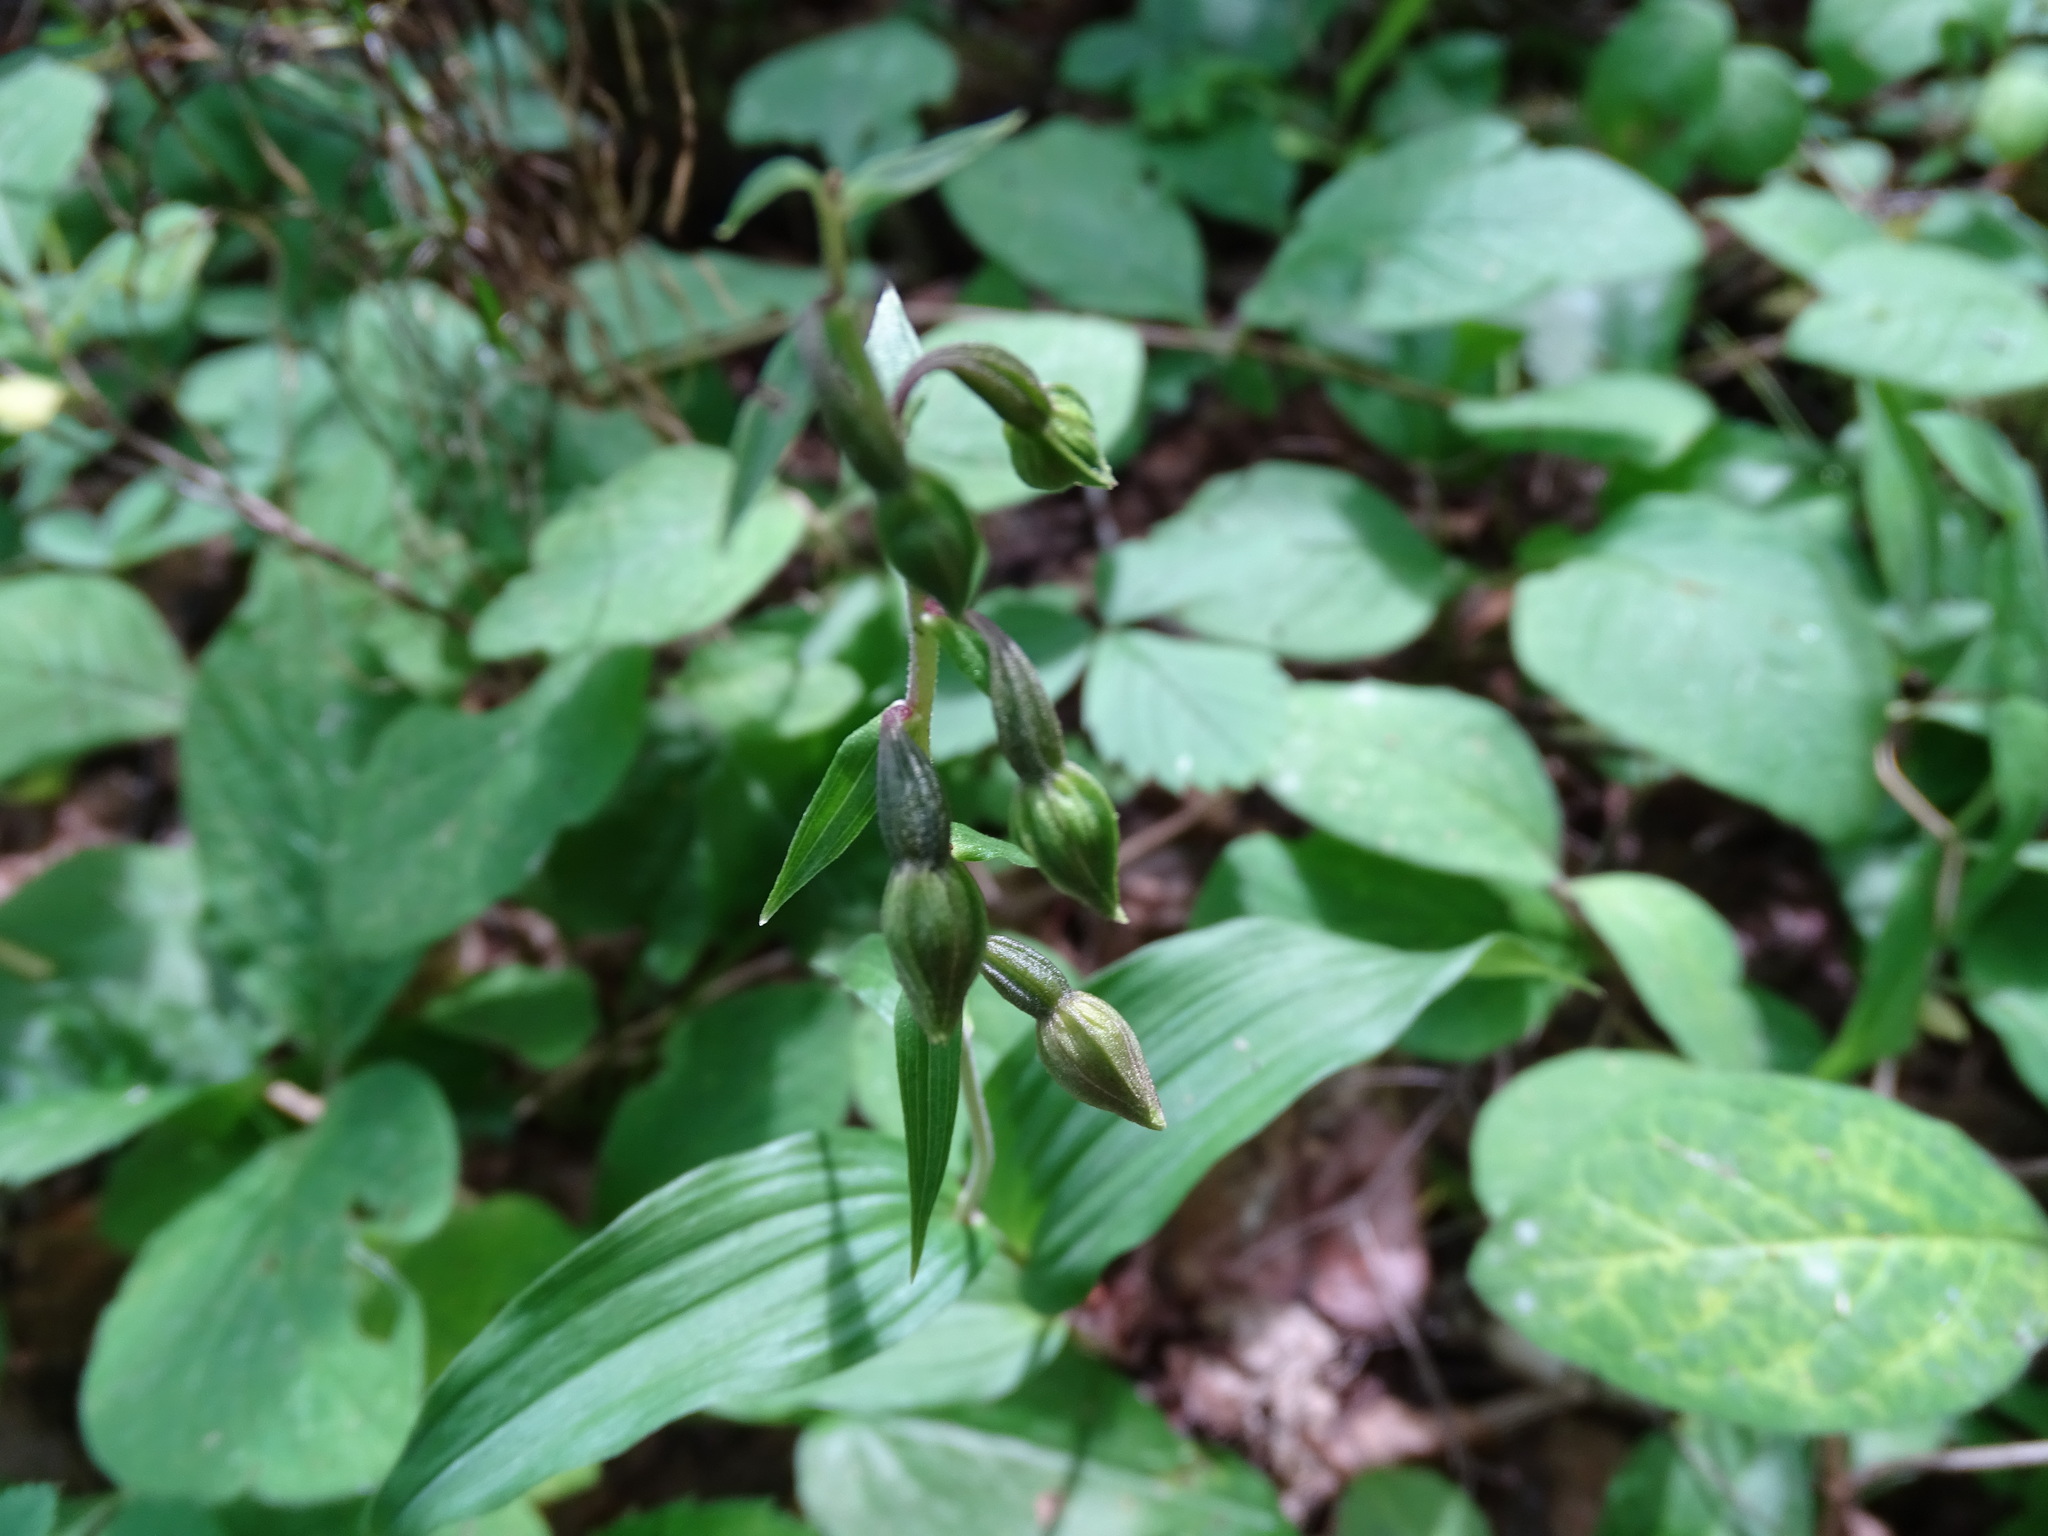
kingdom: Plantae
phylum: Tracheophyta
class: Liliopsida
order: Asparagales
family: Orchidaceae
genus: Epipactis
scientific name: Epipactis helleborine
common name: Broad-leaved helleborine
